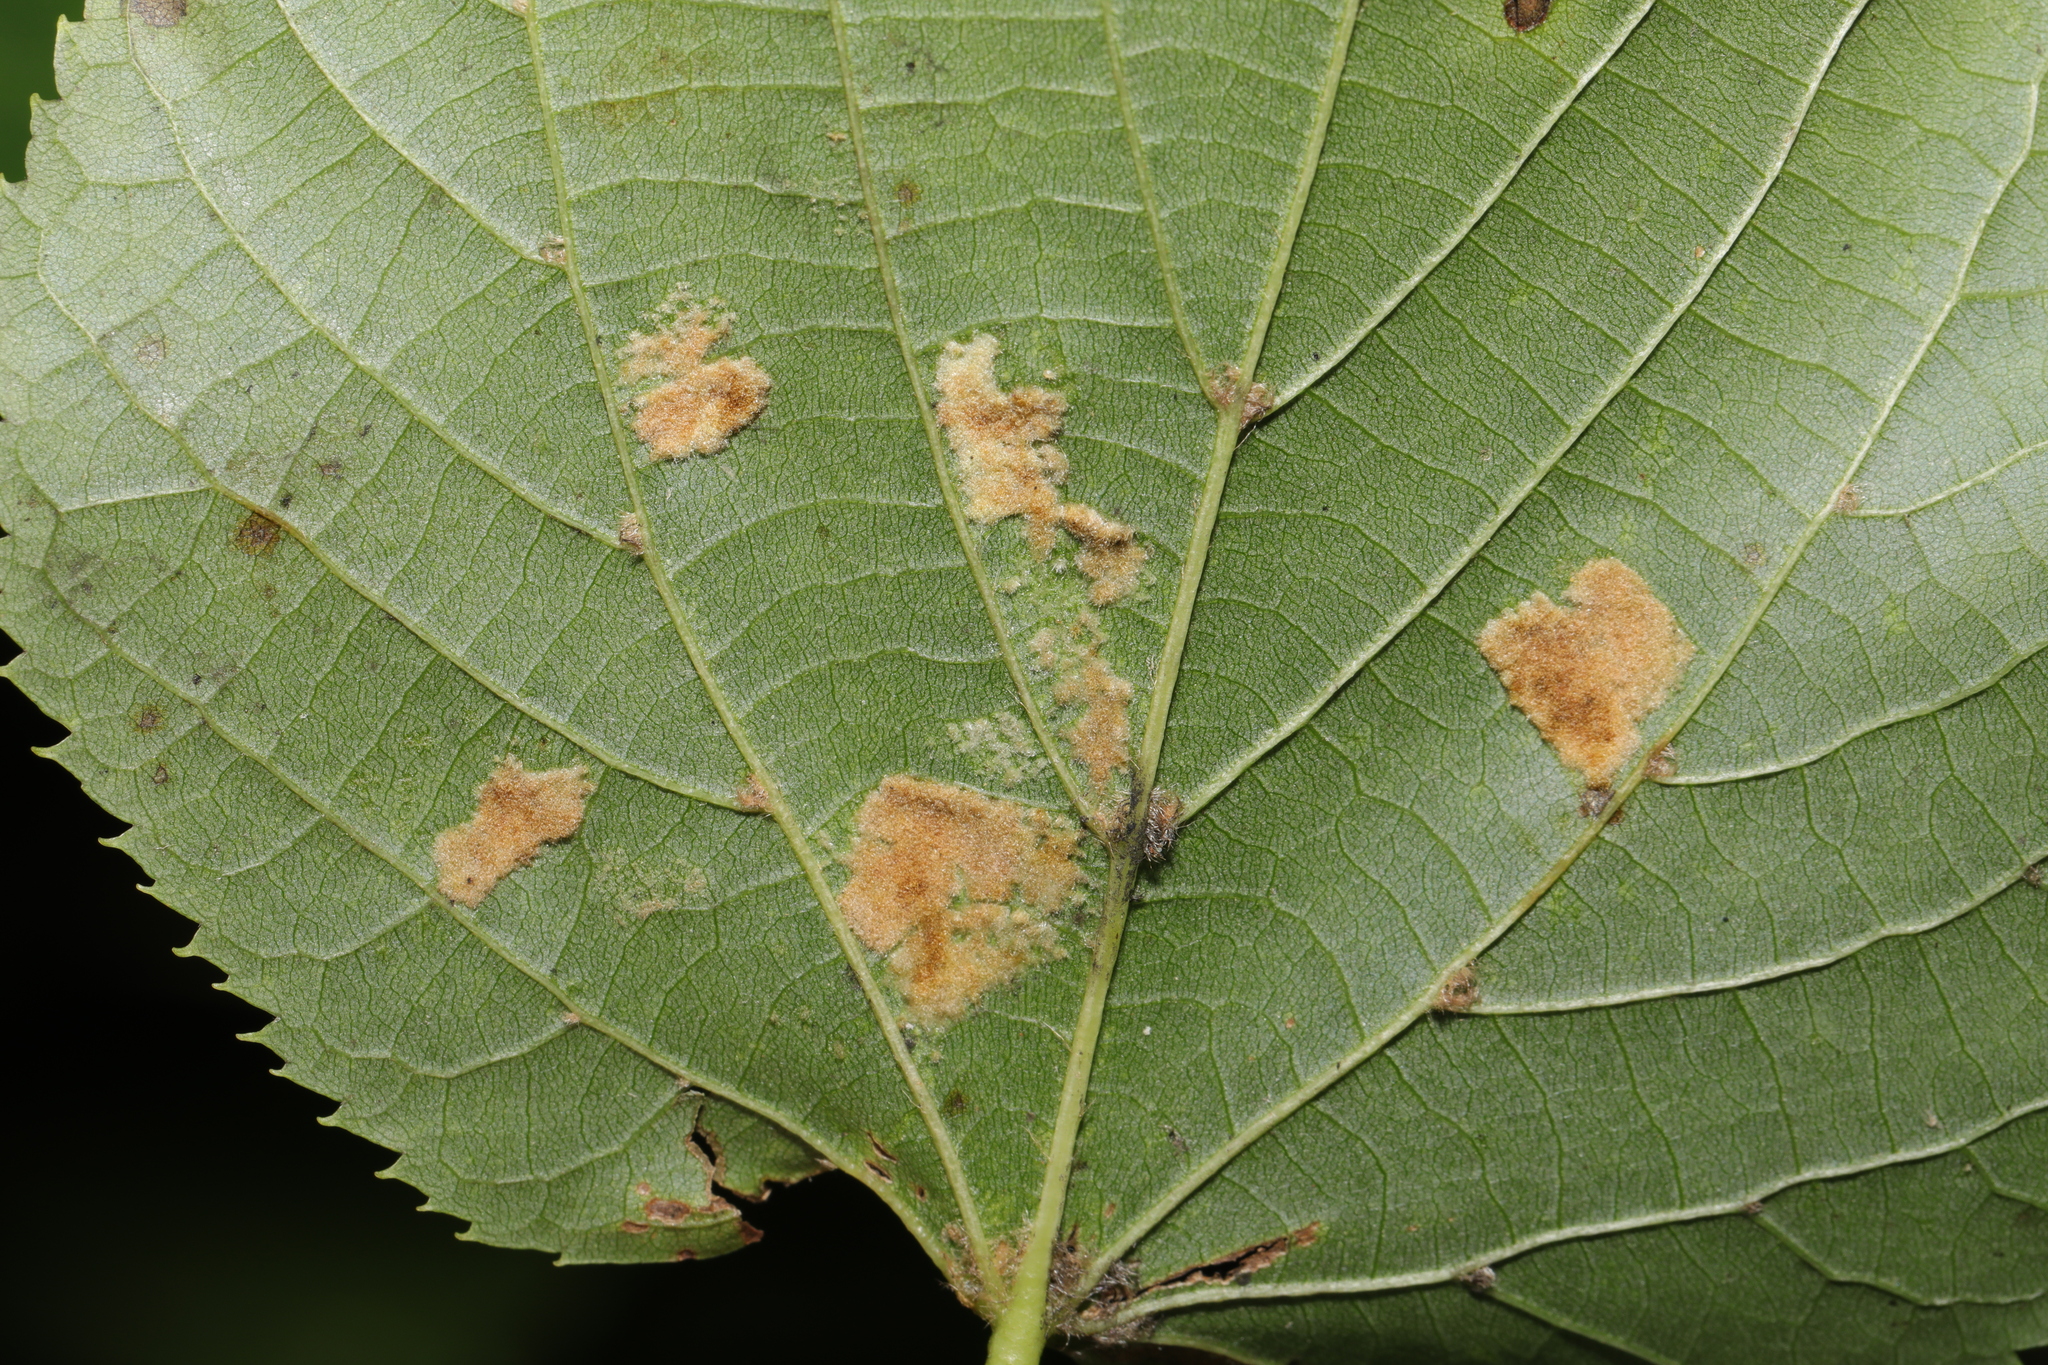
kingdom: Animalia
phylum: Arthropoda
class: Arachnida
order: Trombidiformes
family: Eriophyidae
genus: Eriophyes
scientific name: Eriophyes leiosoma
